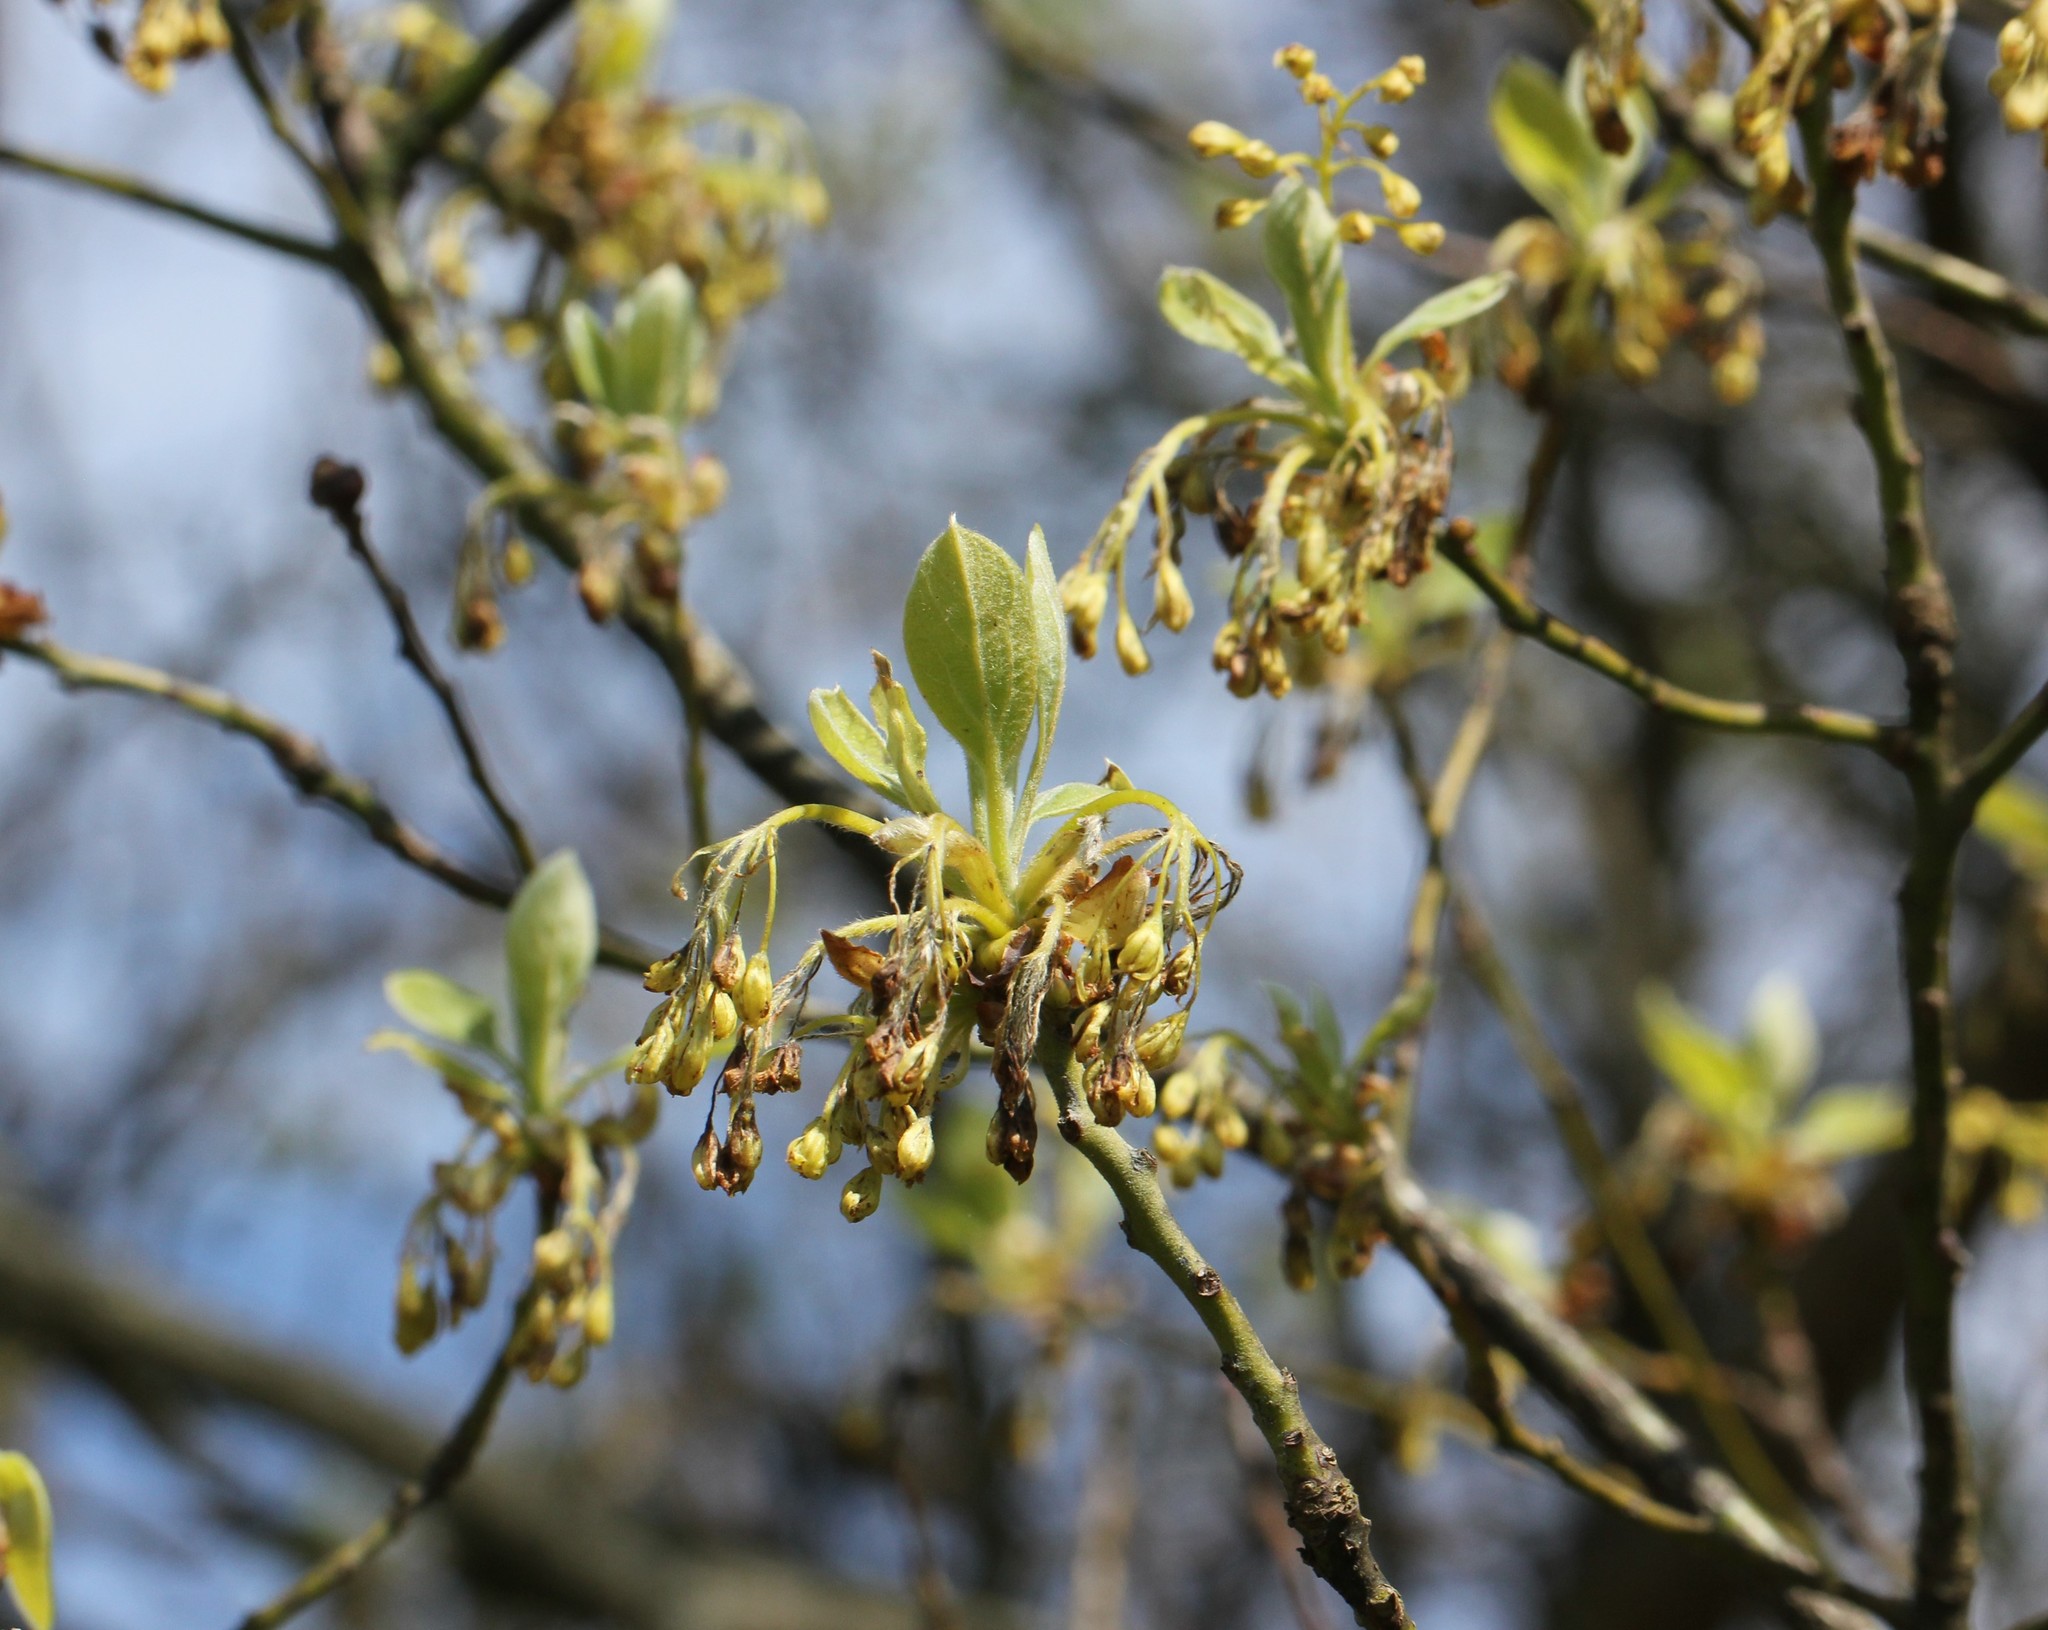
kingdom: Plantae
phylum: Tracheophyta
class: Magnoliopsida
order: Laurales
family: Lauraceae
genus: Sassafras
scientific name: Sassafras albidum
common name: Sassafras
